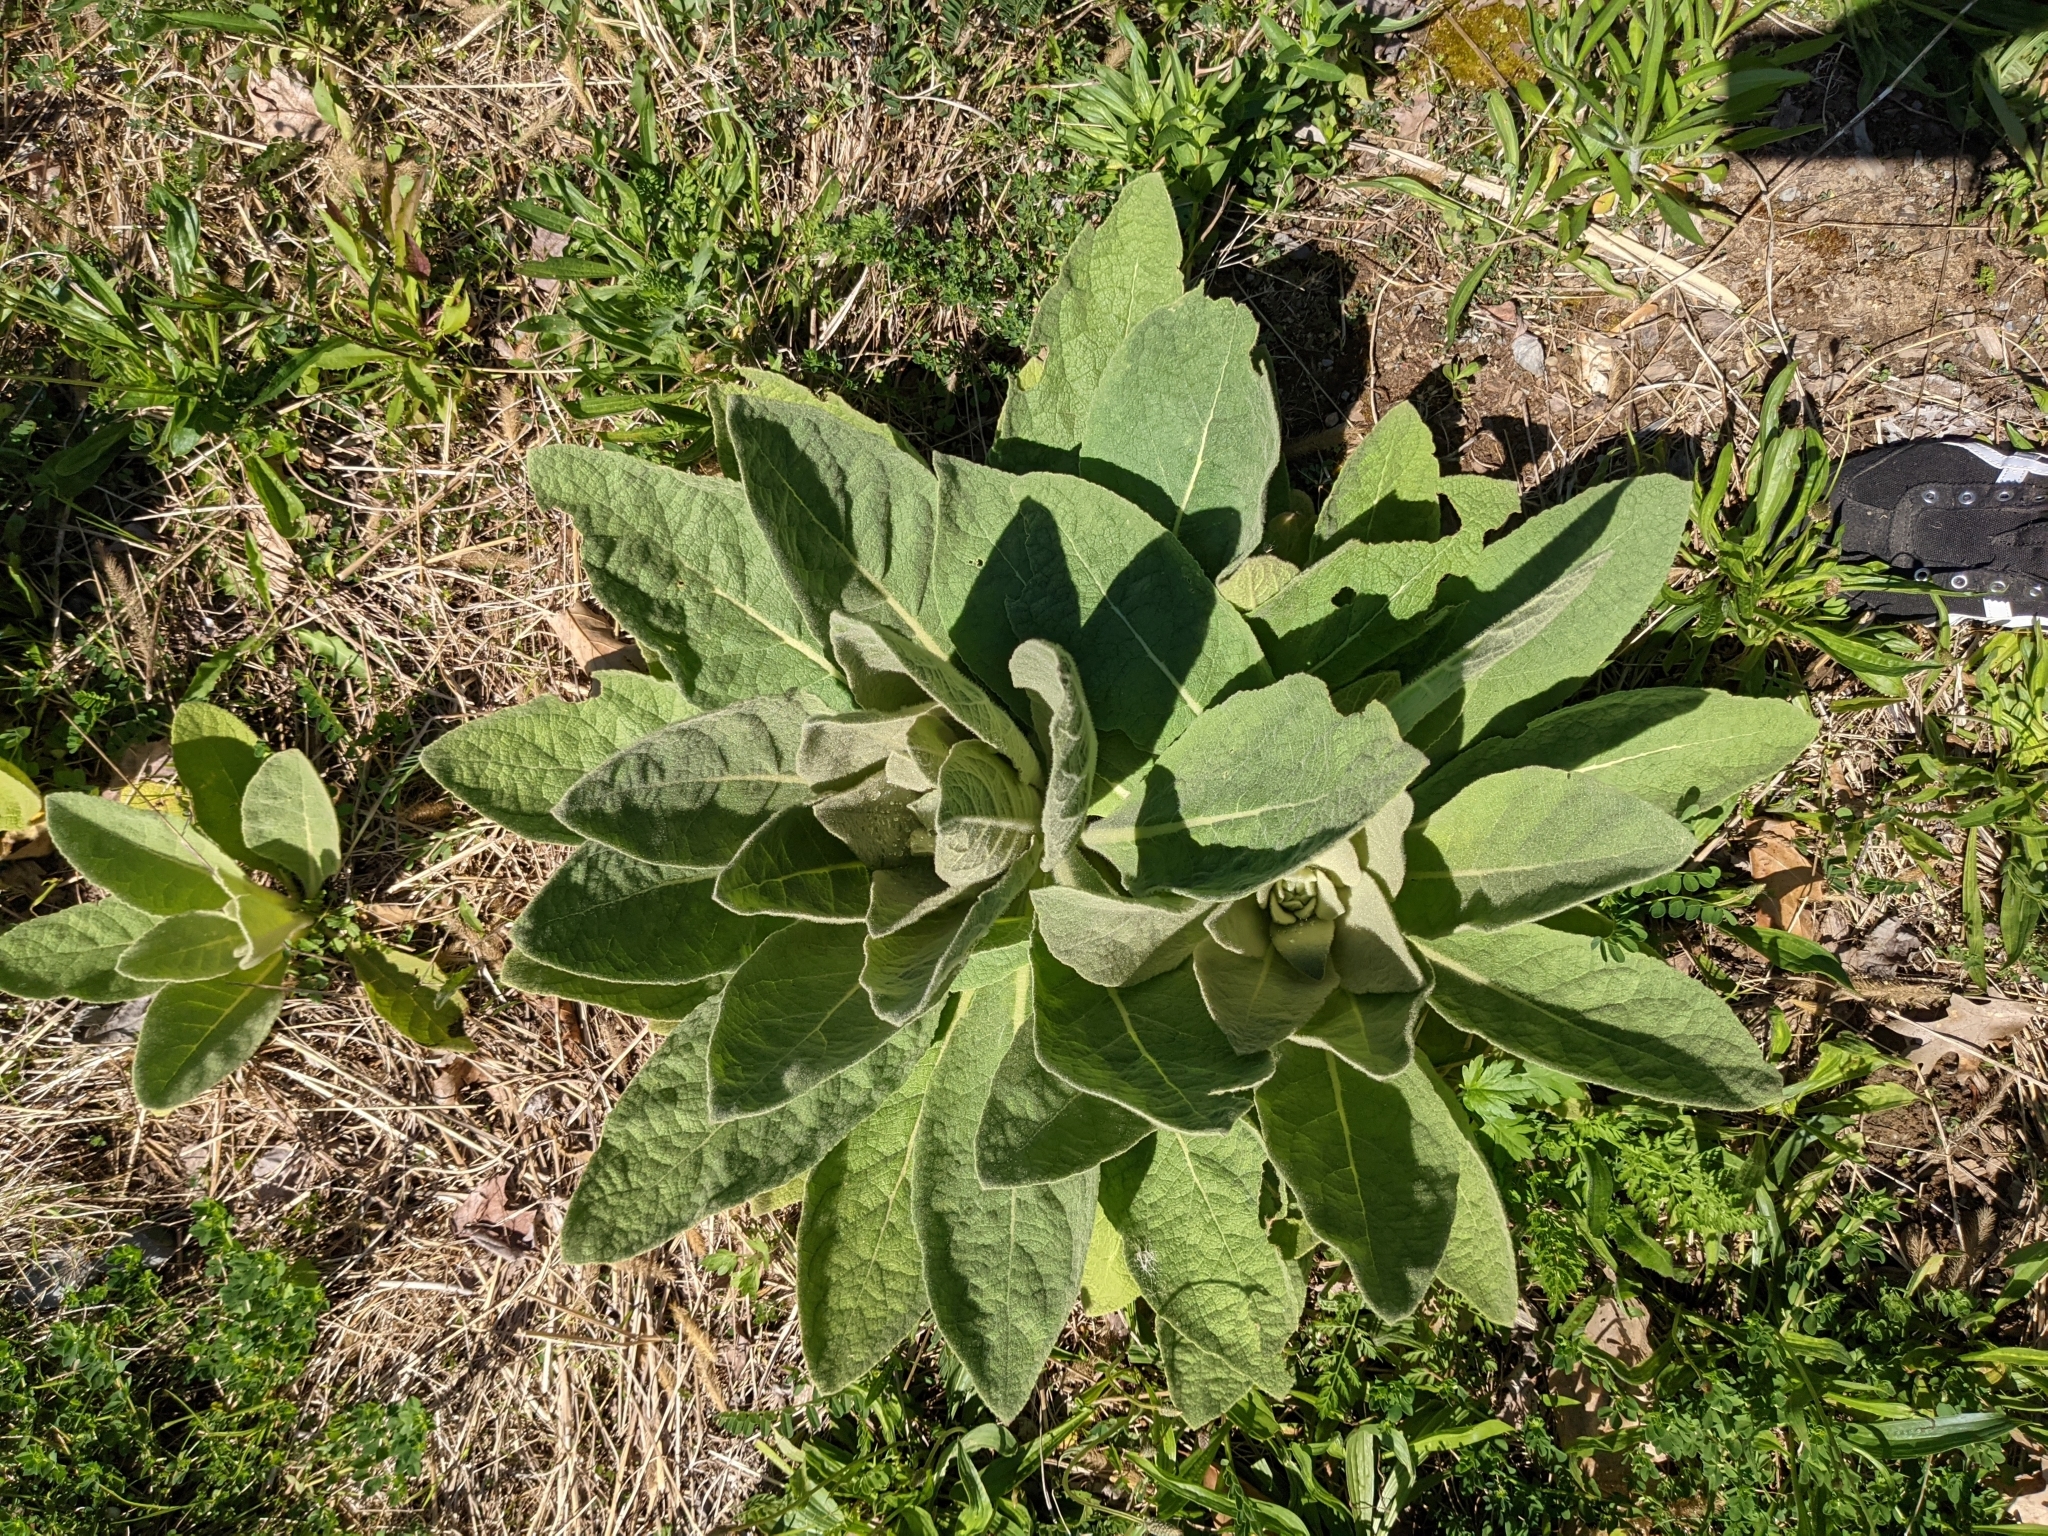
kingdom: Plantae
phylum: Tracheophyta
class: Magnoliopsida
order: Lamiales
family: Scrophulariaceae
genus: Verbascum
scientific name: Verbascum thapsus
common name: Common mullein
